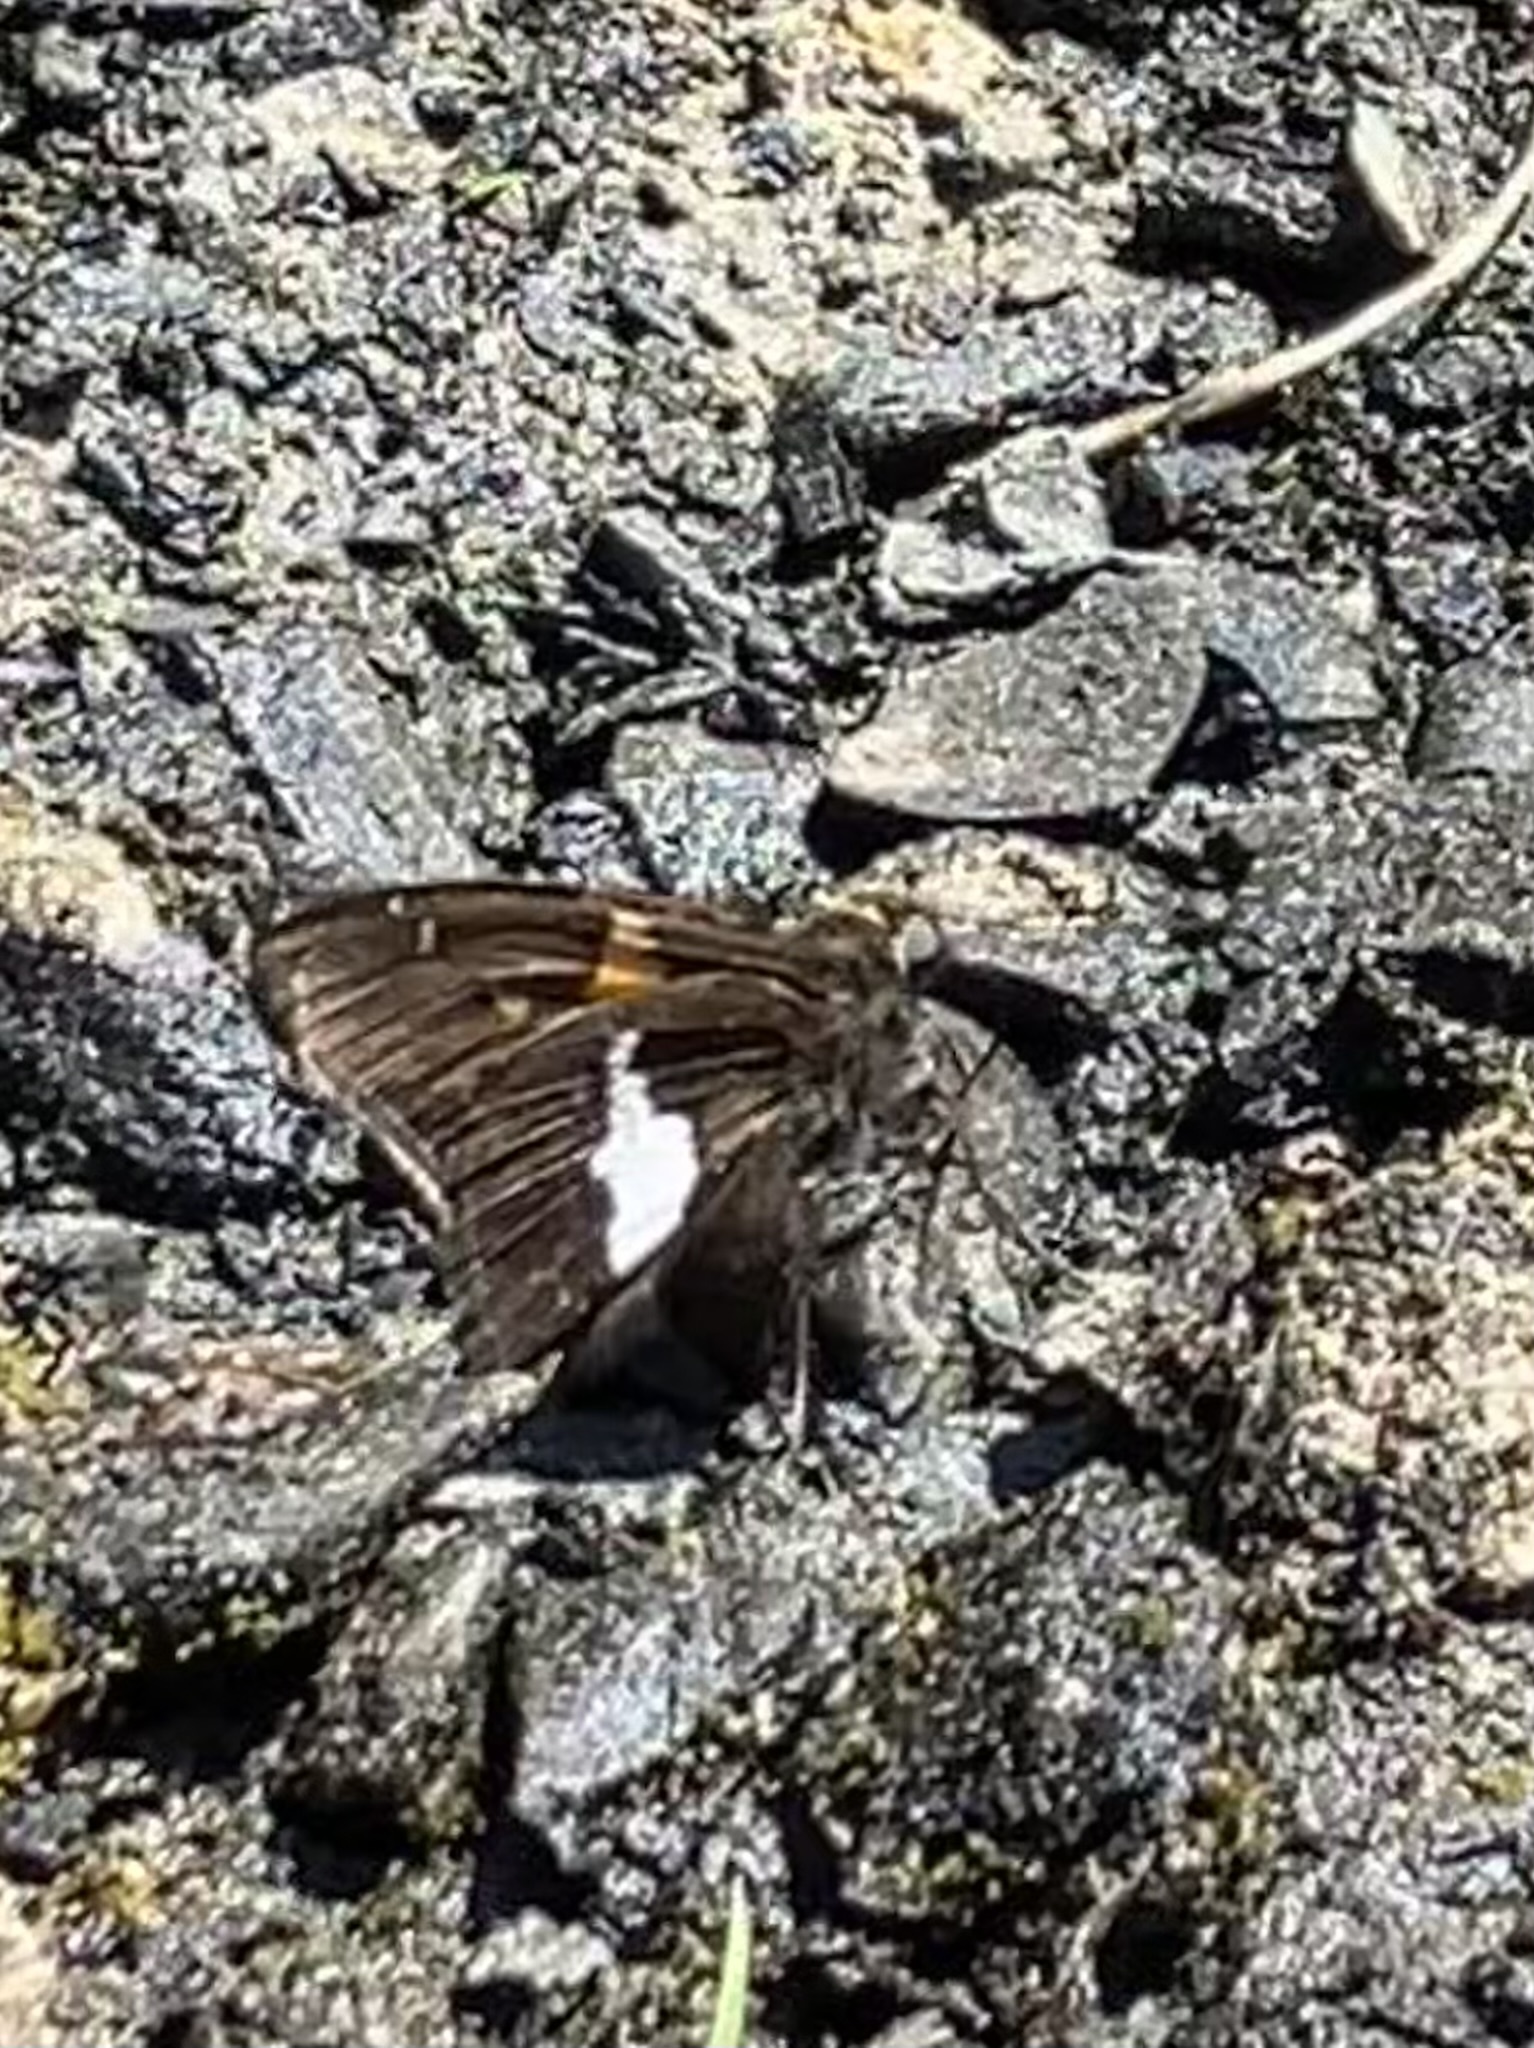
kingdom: Animalia
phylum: Arthropoda
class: Insecta
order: Lepidoptera
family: Hesperiidae
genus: Epargyreus
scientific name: Epargyreus clarus
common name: Silver-spotted skipper
